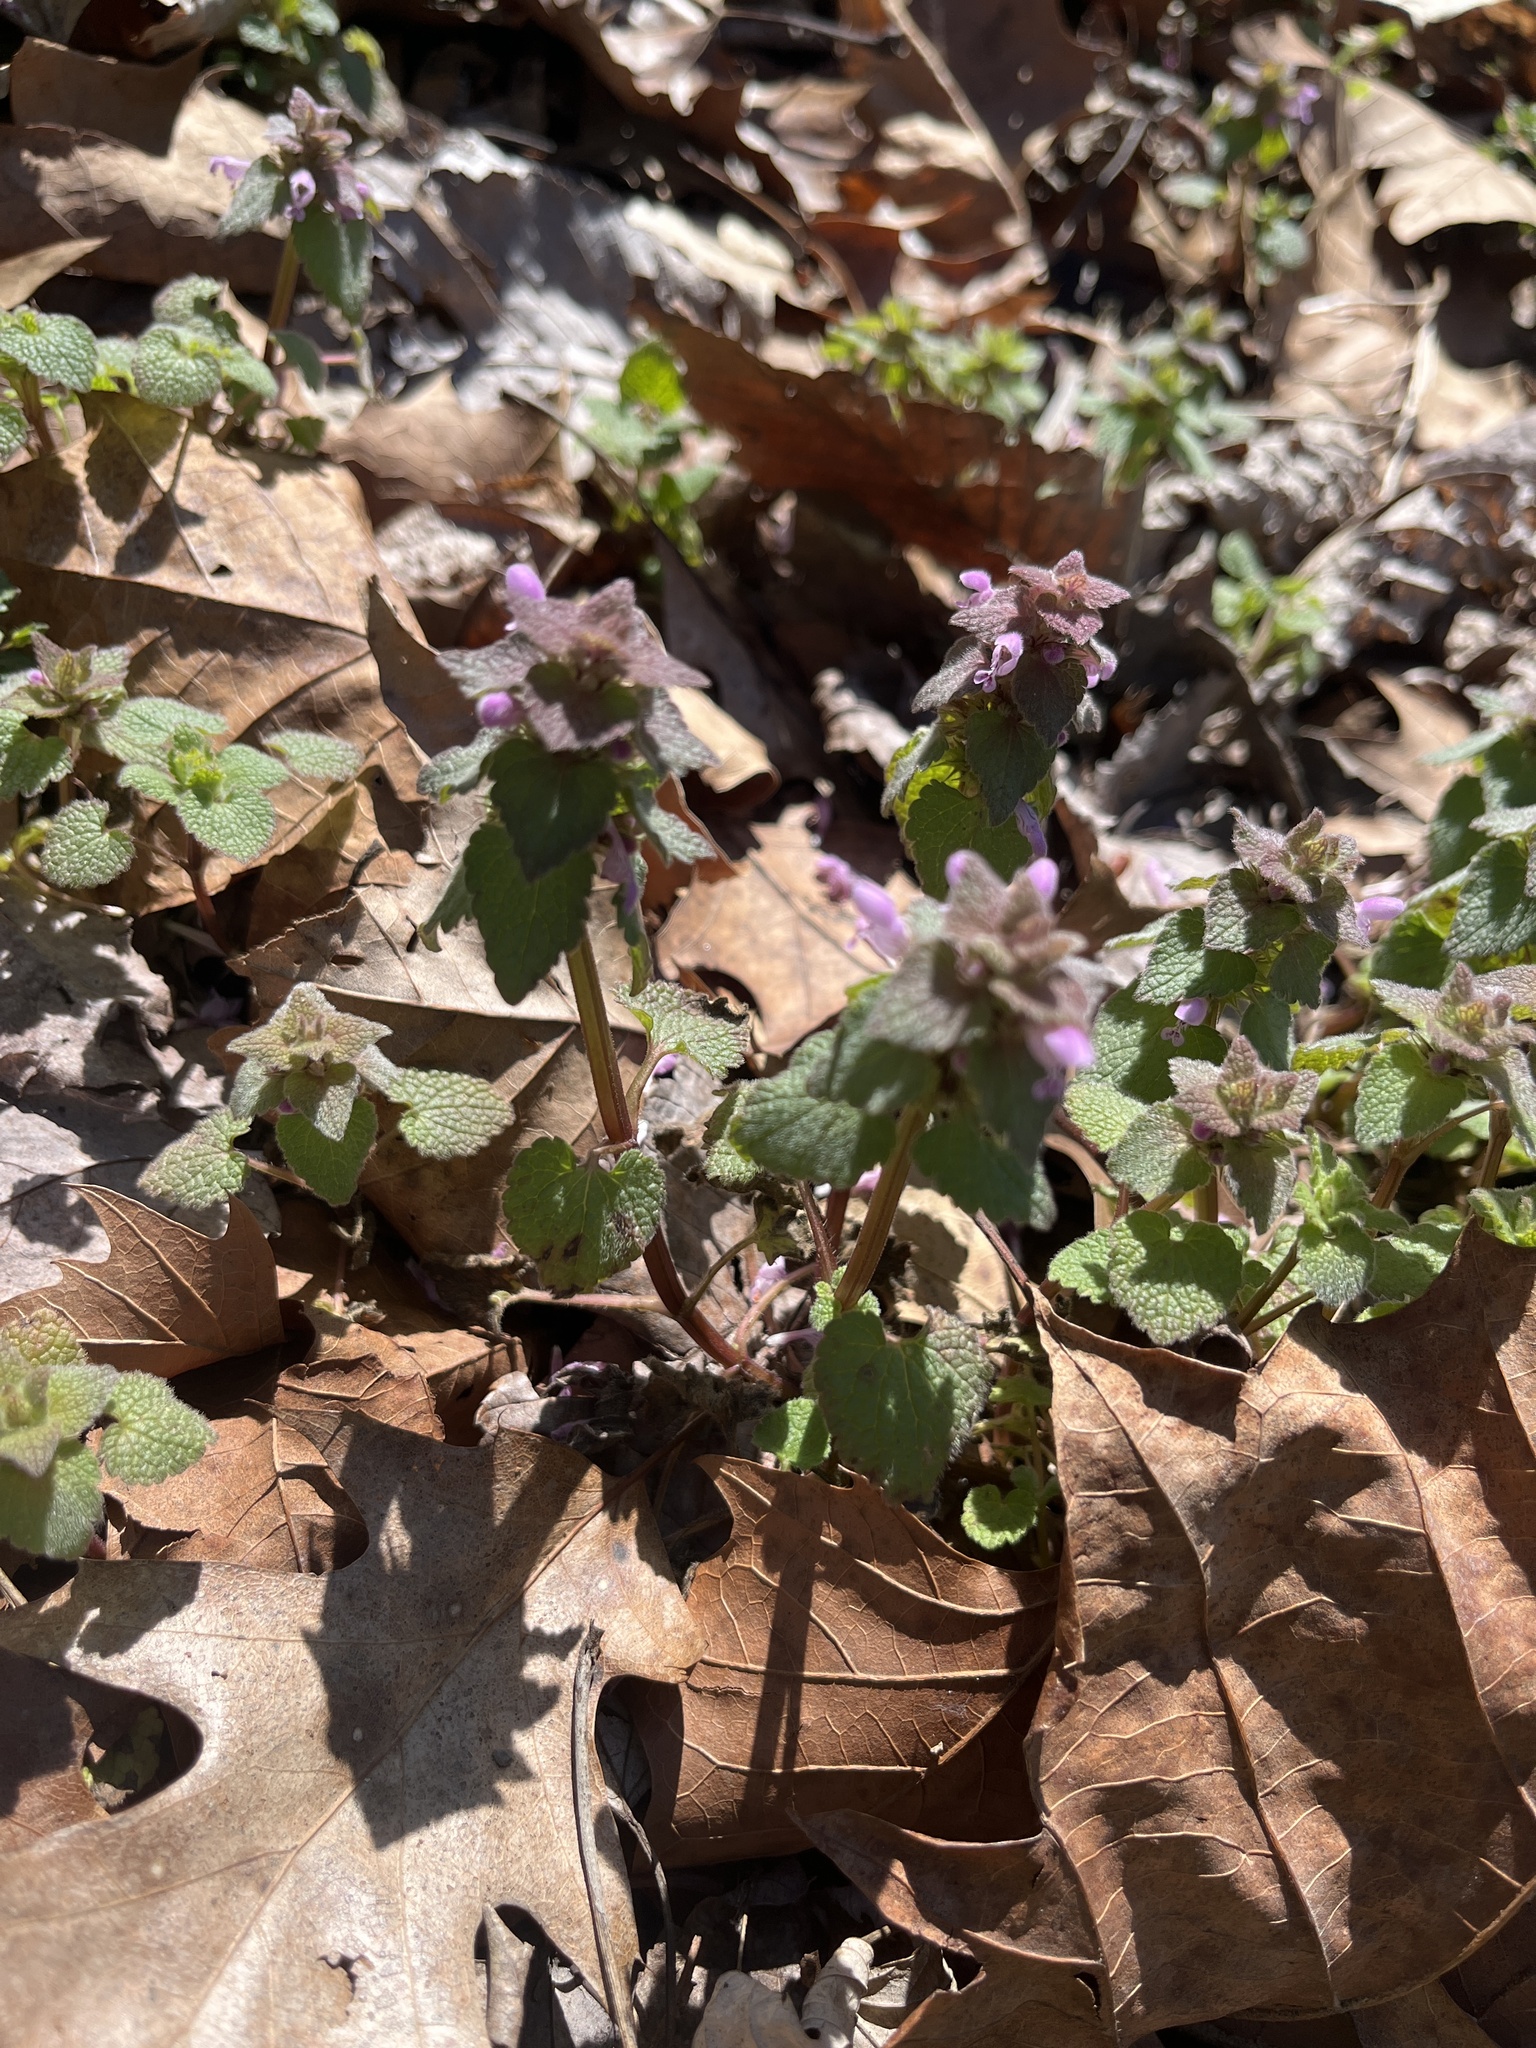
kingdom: Plantae
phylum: Tracheophyta
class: Magnoliopsida
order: Lamiales
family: Lamiaceae
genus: Lamium
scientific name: Lamium purpureum
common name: Red dead-nettle
